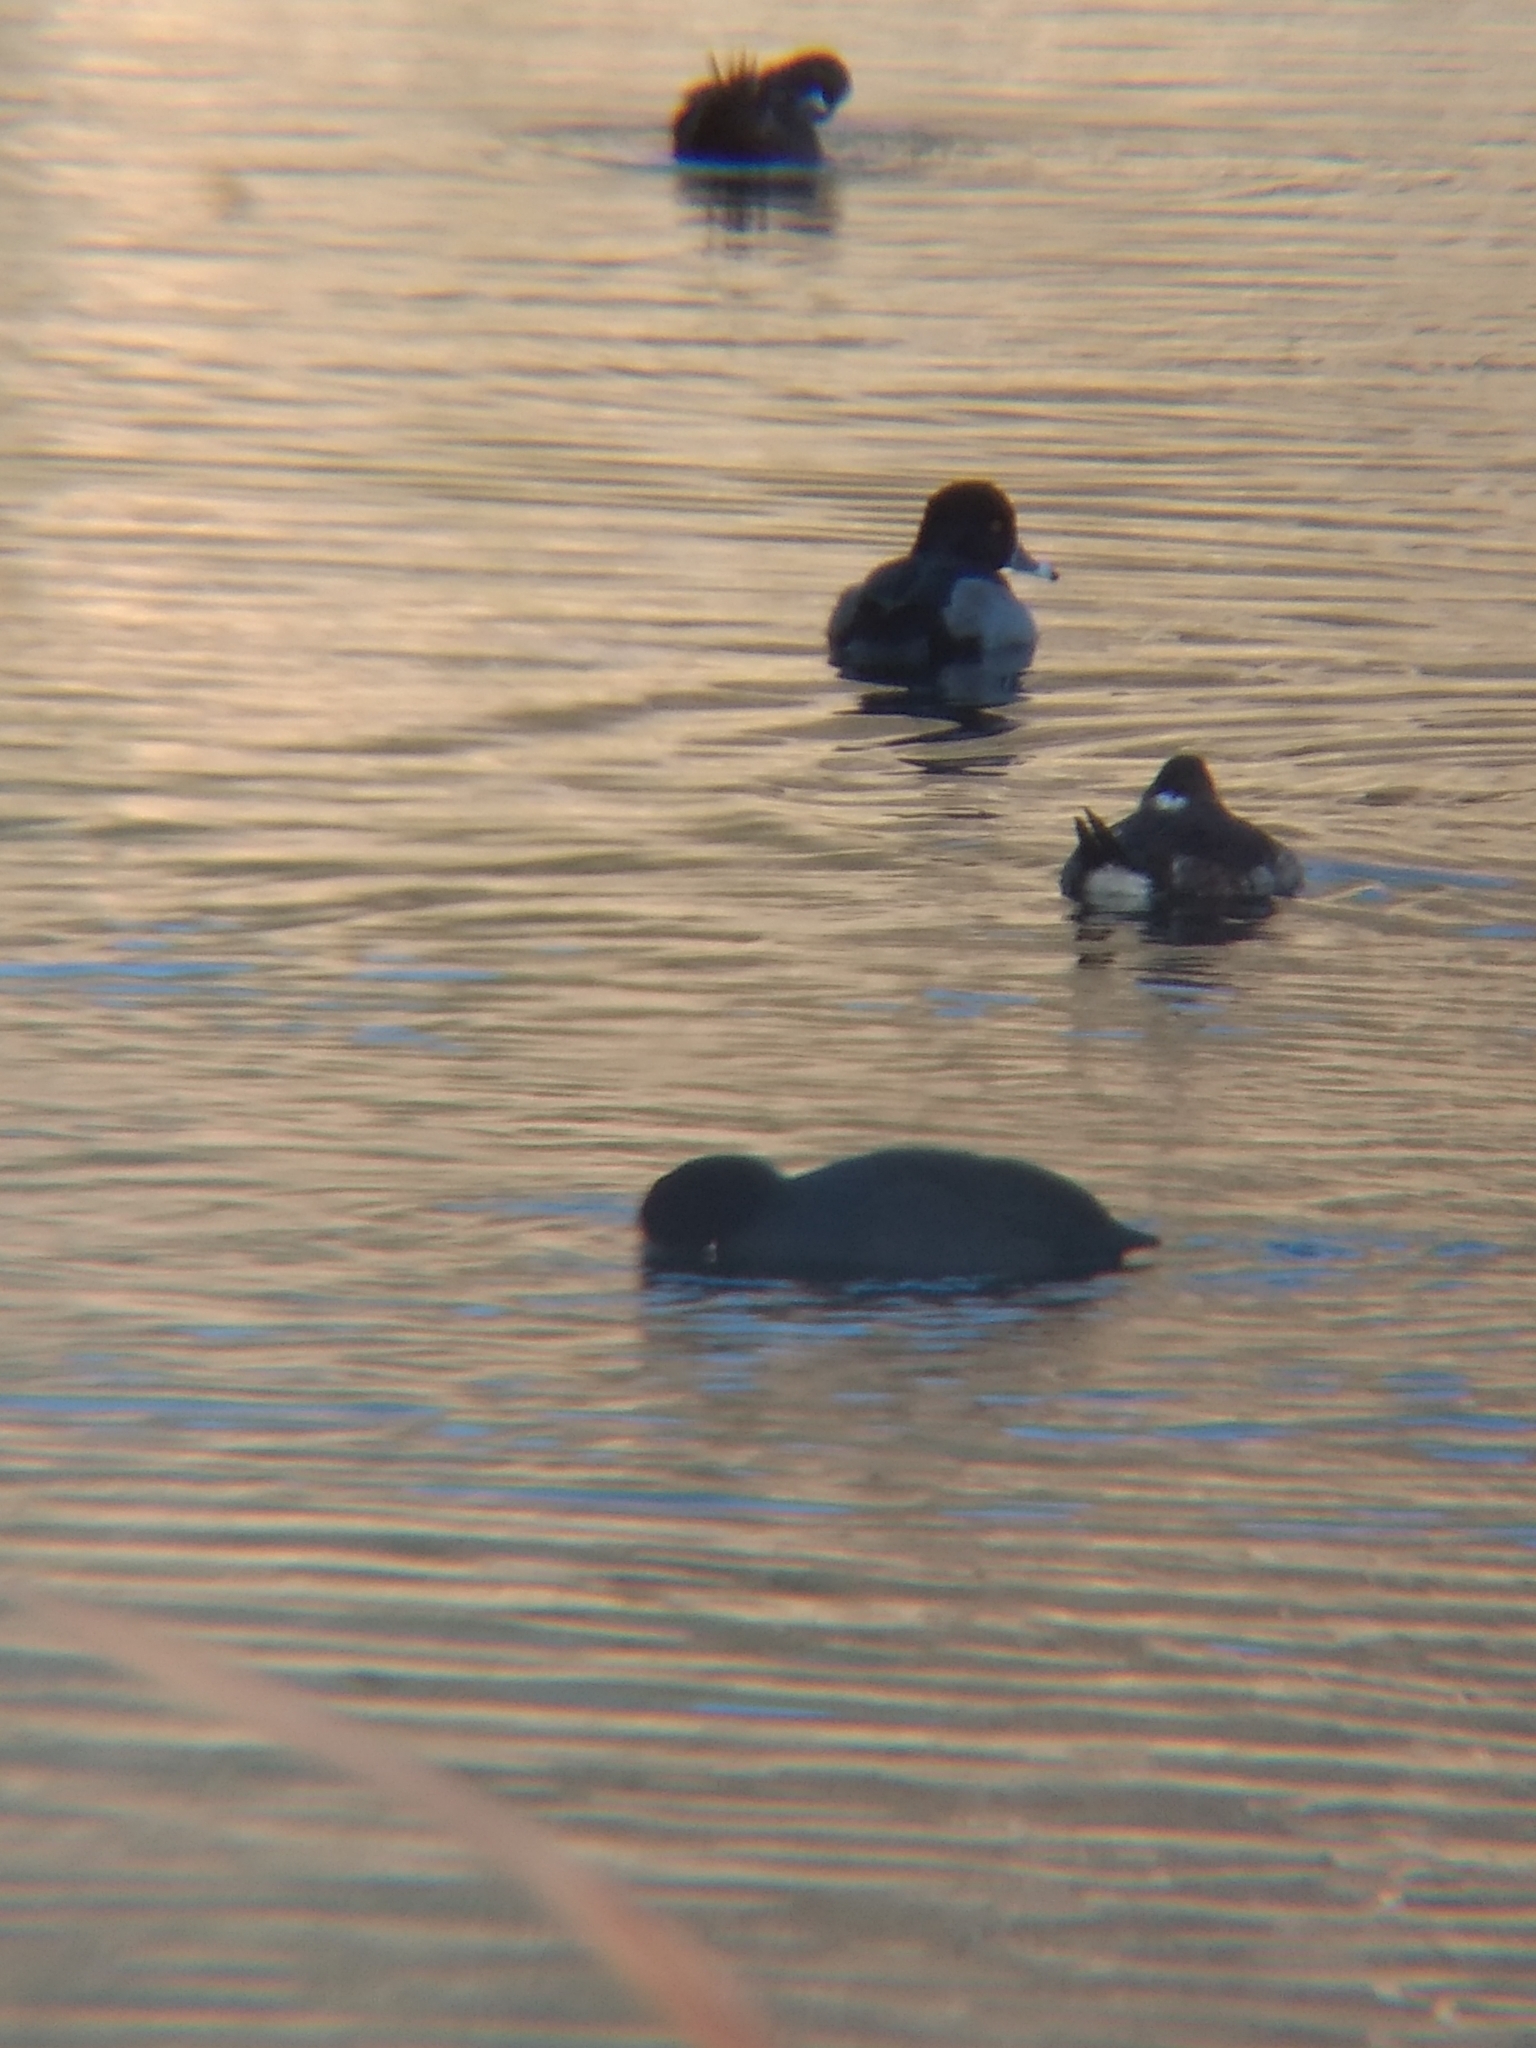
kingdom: Animalia
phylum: Chordata
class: Aves
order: Gruiformes
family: Rallidae
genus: Fulica
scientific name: Fulica americana
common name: American coot
